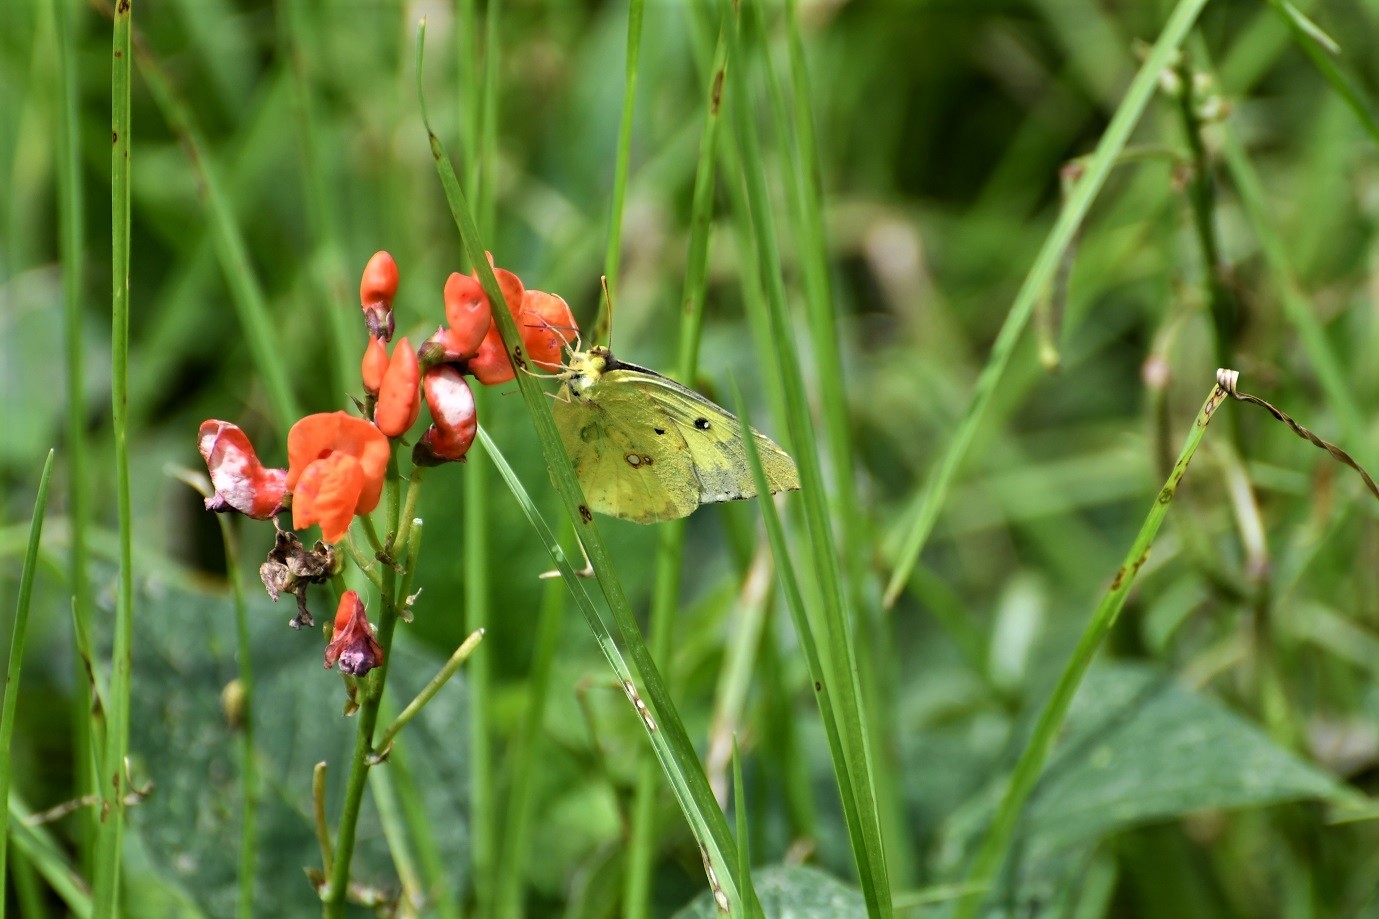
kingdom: Animalia
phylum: Arthropoda
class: Insecta
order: Lepidoptera
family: Pieridae
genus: Zerene
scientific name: Zerene cesonia
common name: Southern dogface
